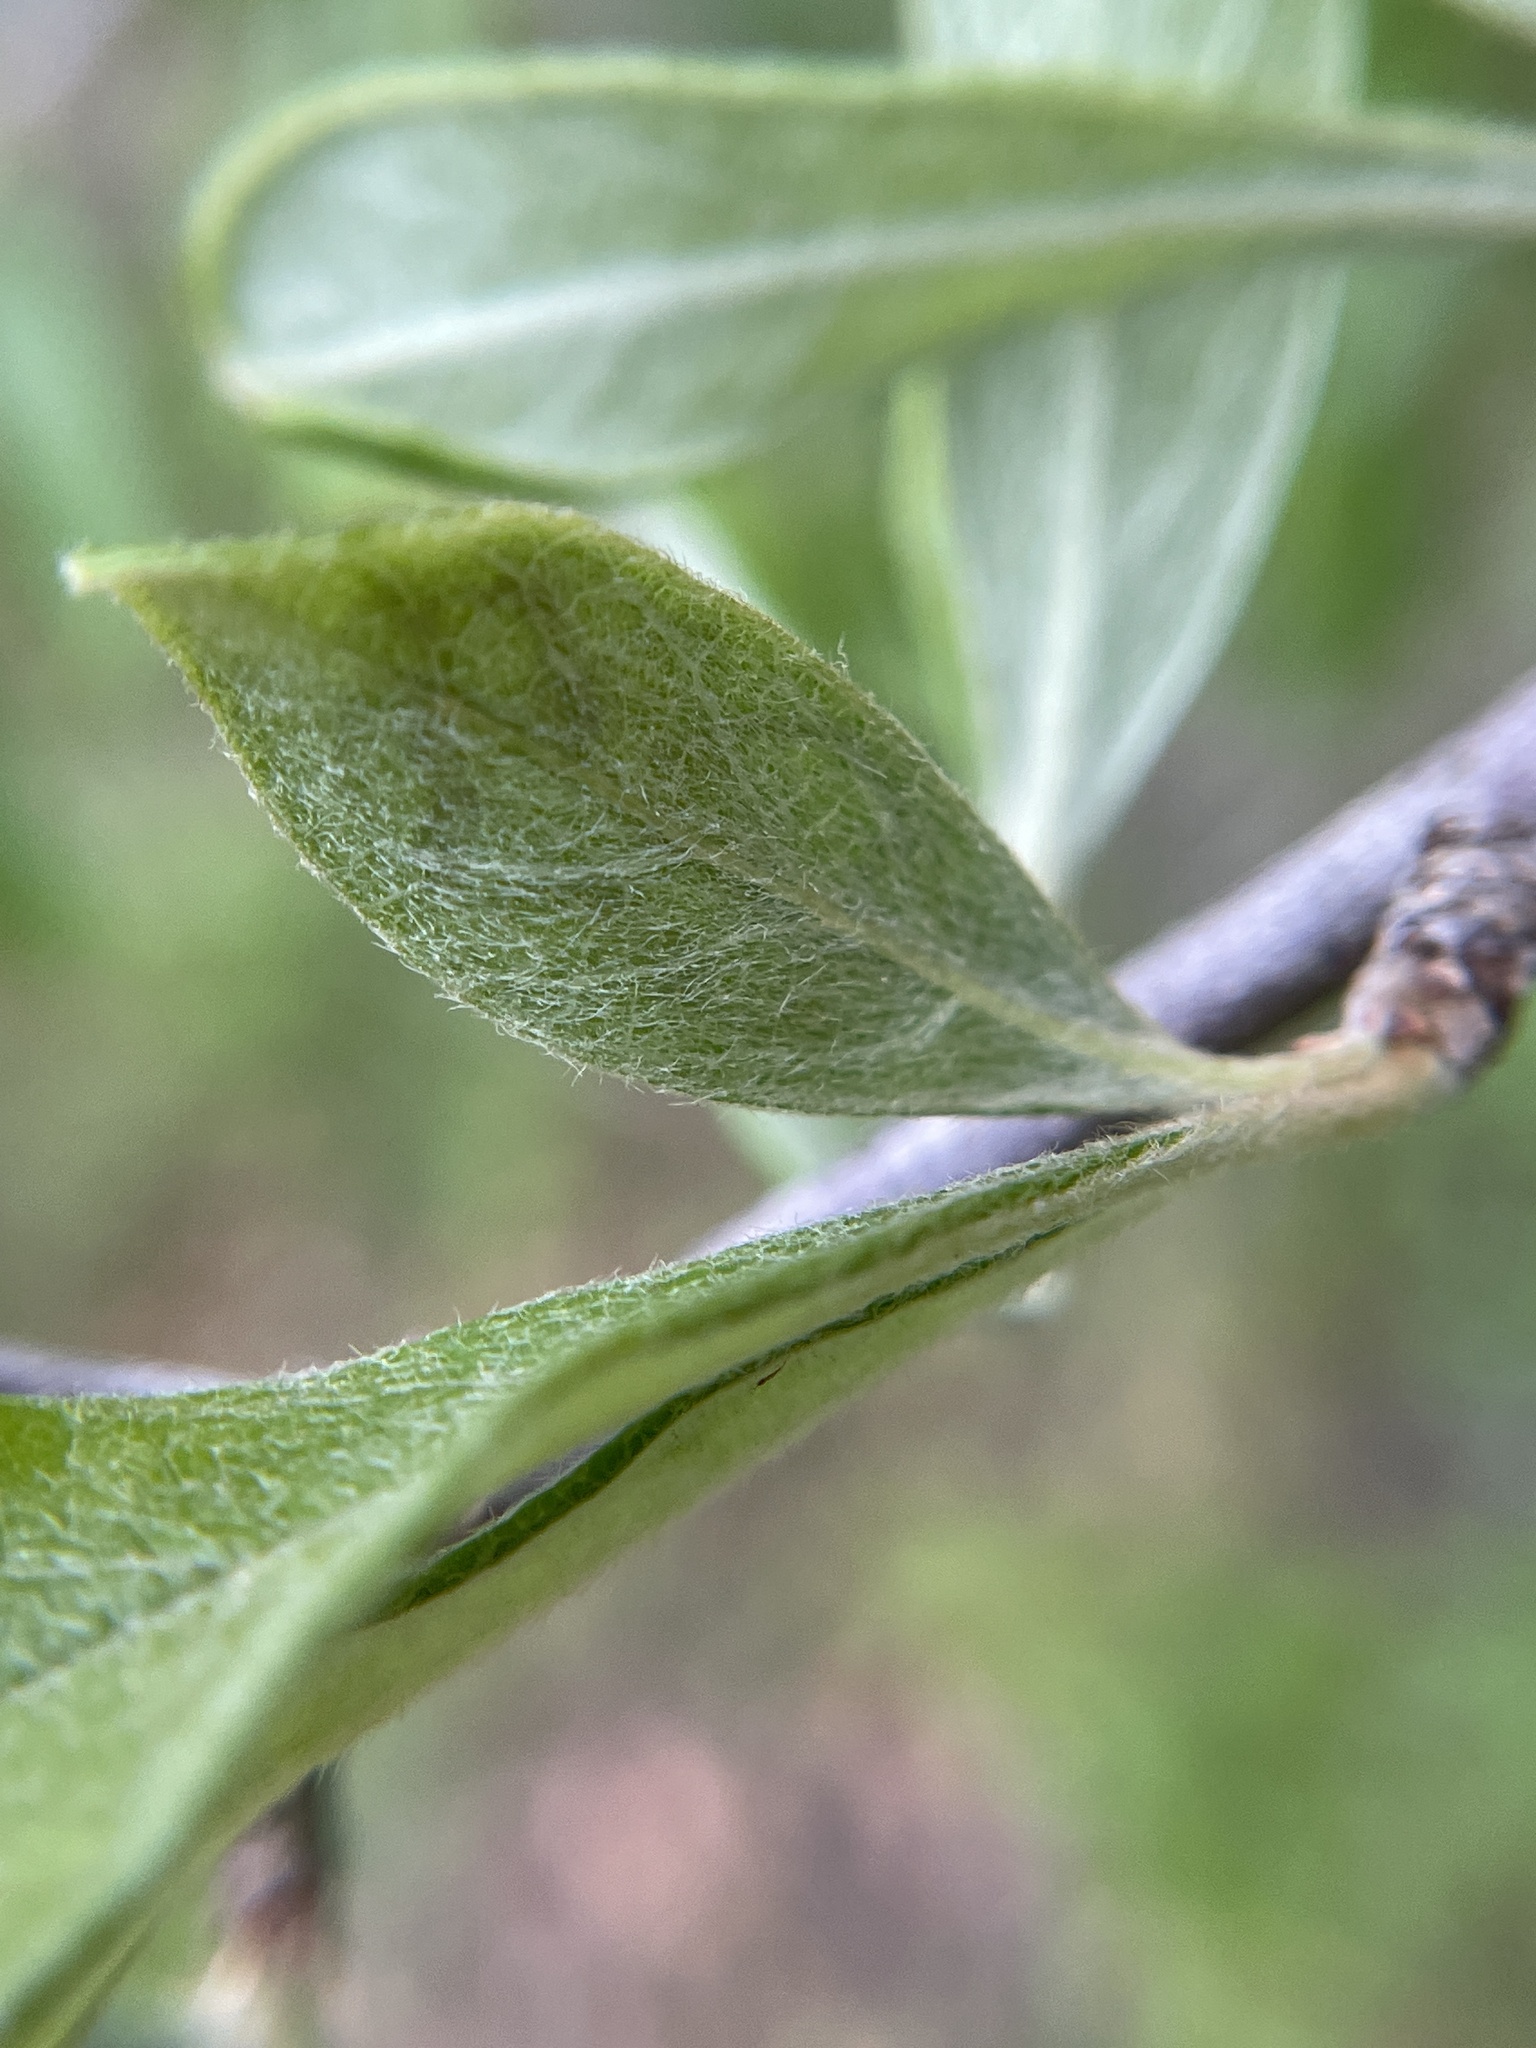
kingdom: Animalia
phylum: Arthropoda
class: Insecta
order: Lepidoptera
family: Gracillariidae
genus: Parectopa
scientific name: Parectopa bumeliella
